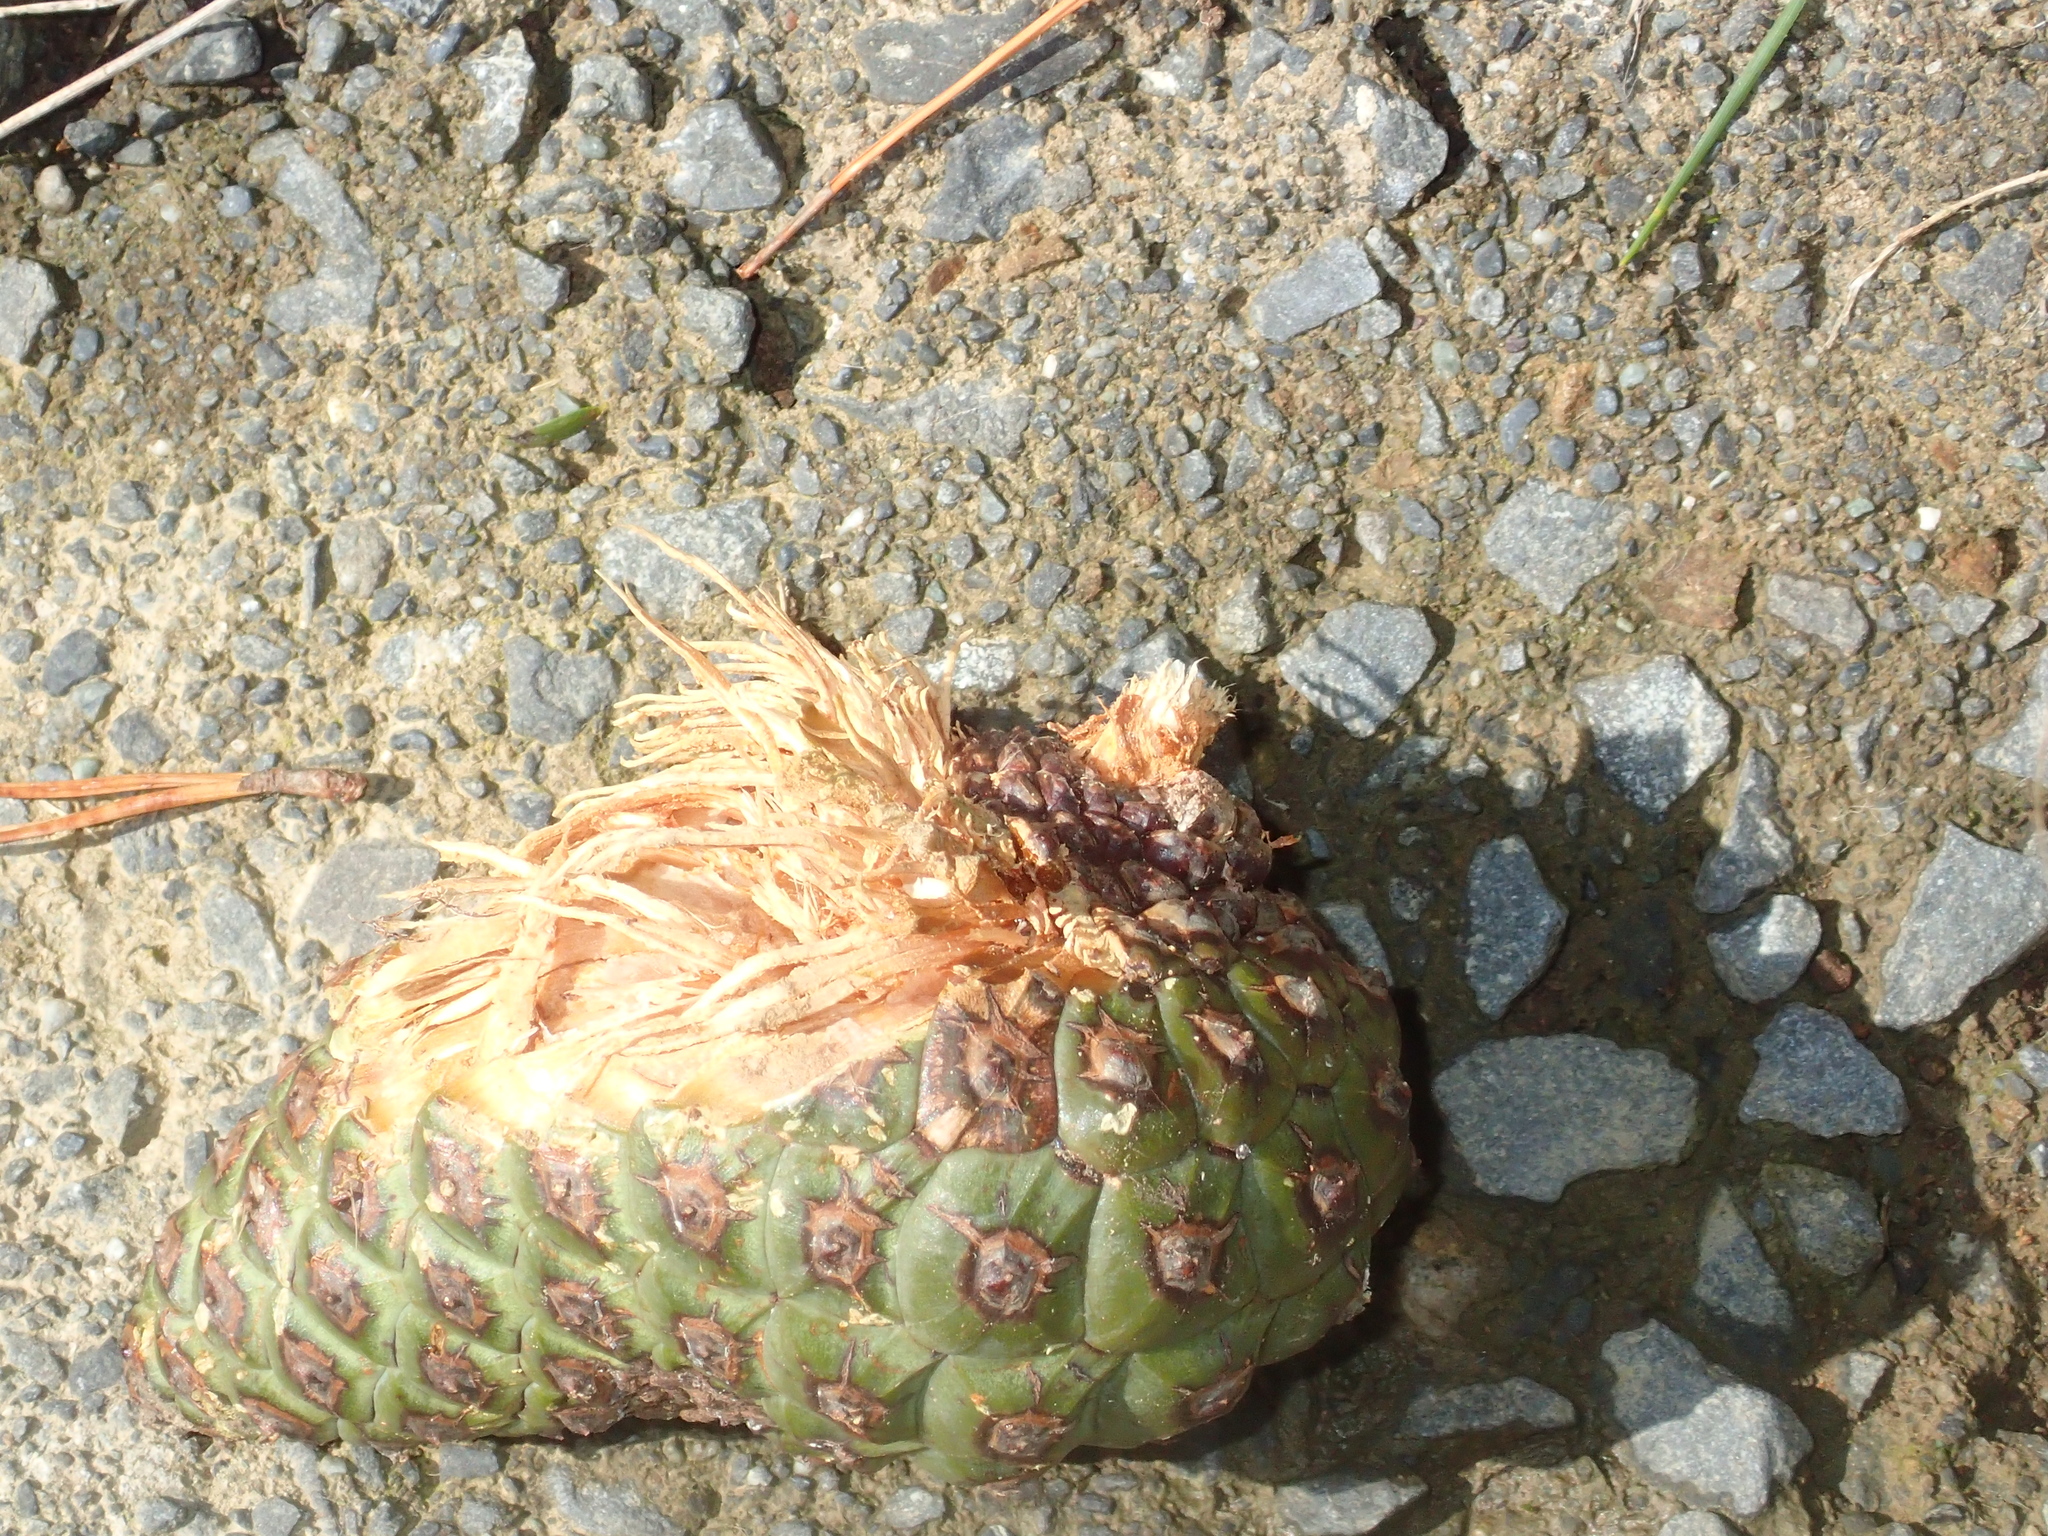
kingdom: Plantae
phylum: Tracheophyta
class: Pinopsida
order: Pinales
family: Pinaceae
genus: Pinus
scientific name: Pinus radiata
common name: Monterey pine
